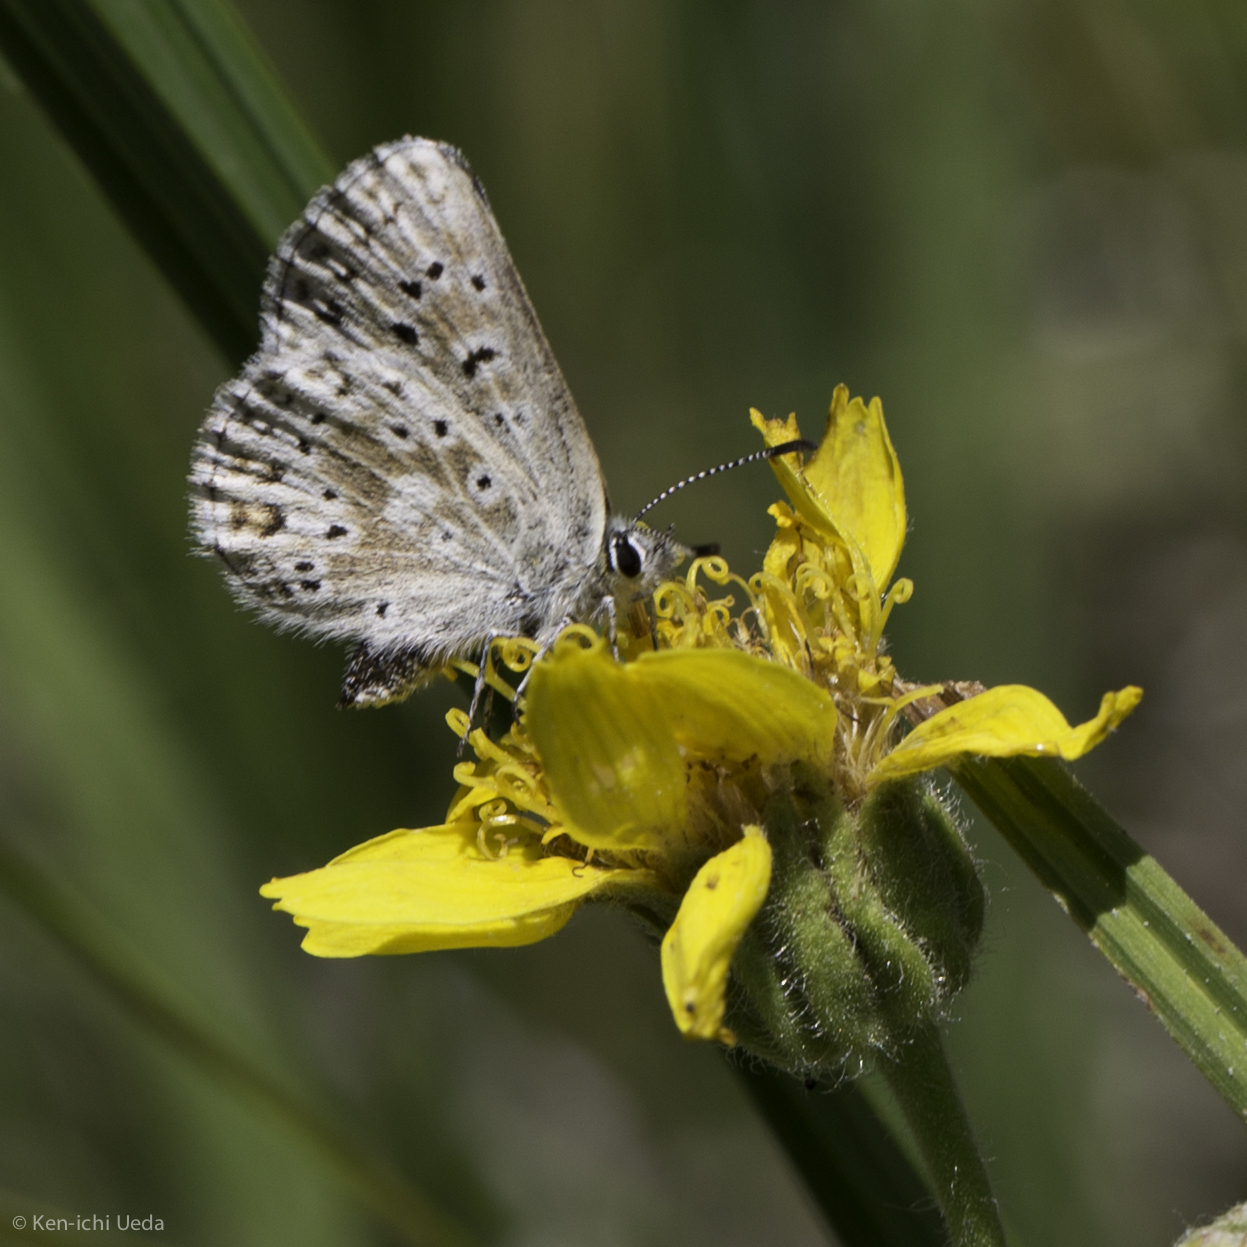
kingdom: Animalia
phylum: Arthropoda
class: Insecta
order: Lepidoptera
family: Lycaenidae
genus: Agriades
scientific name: Agriades podarce
